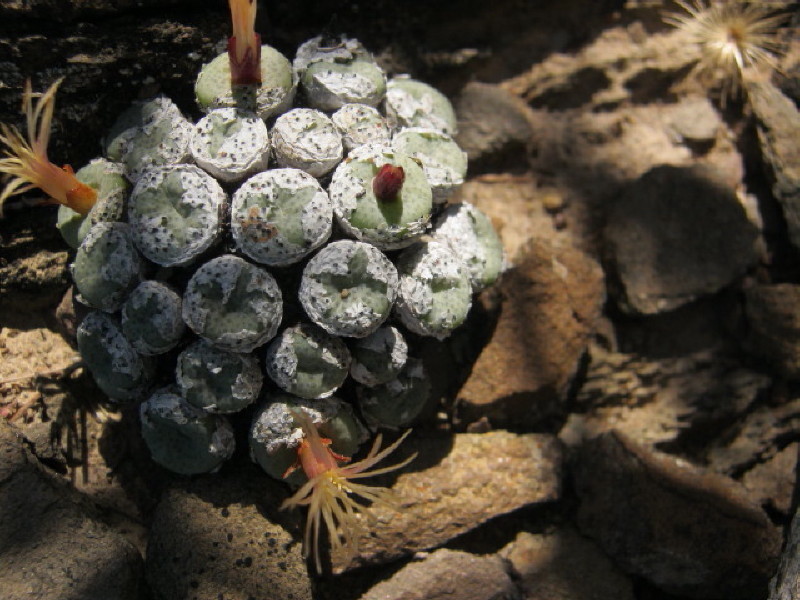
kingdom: Plantae
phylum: Tracheophyta
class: Magnoliopsida
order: Caryophyllales
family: Aizoaceae
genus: Conophytum
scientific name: Conophytum truncatum
